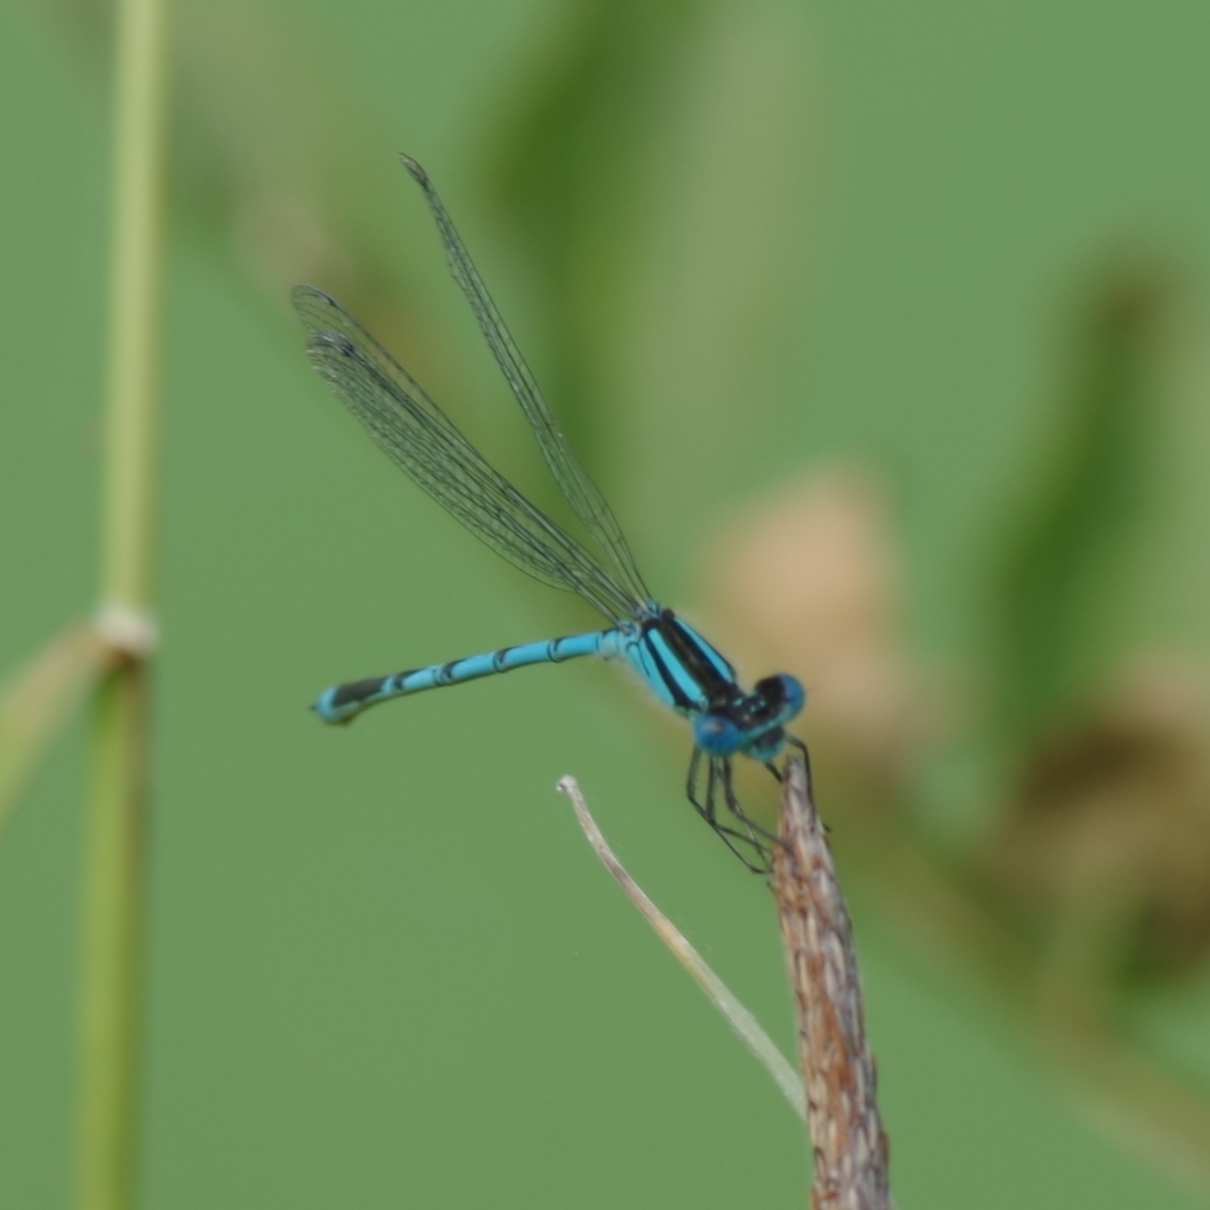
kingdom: Animalia
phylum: Arthropoda
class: Insecta
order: Odonata
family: Coenagrionidae
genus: Erythromma
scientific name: Erythromma lindenii
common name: Blue-eye
